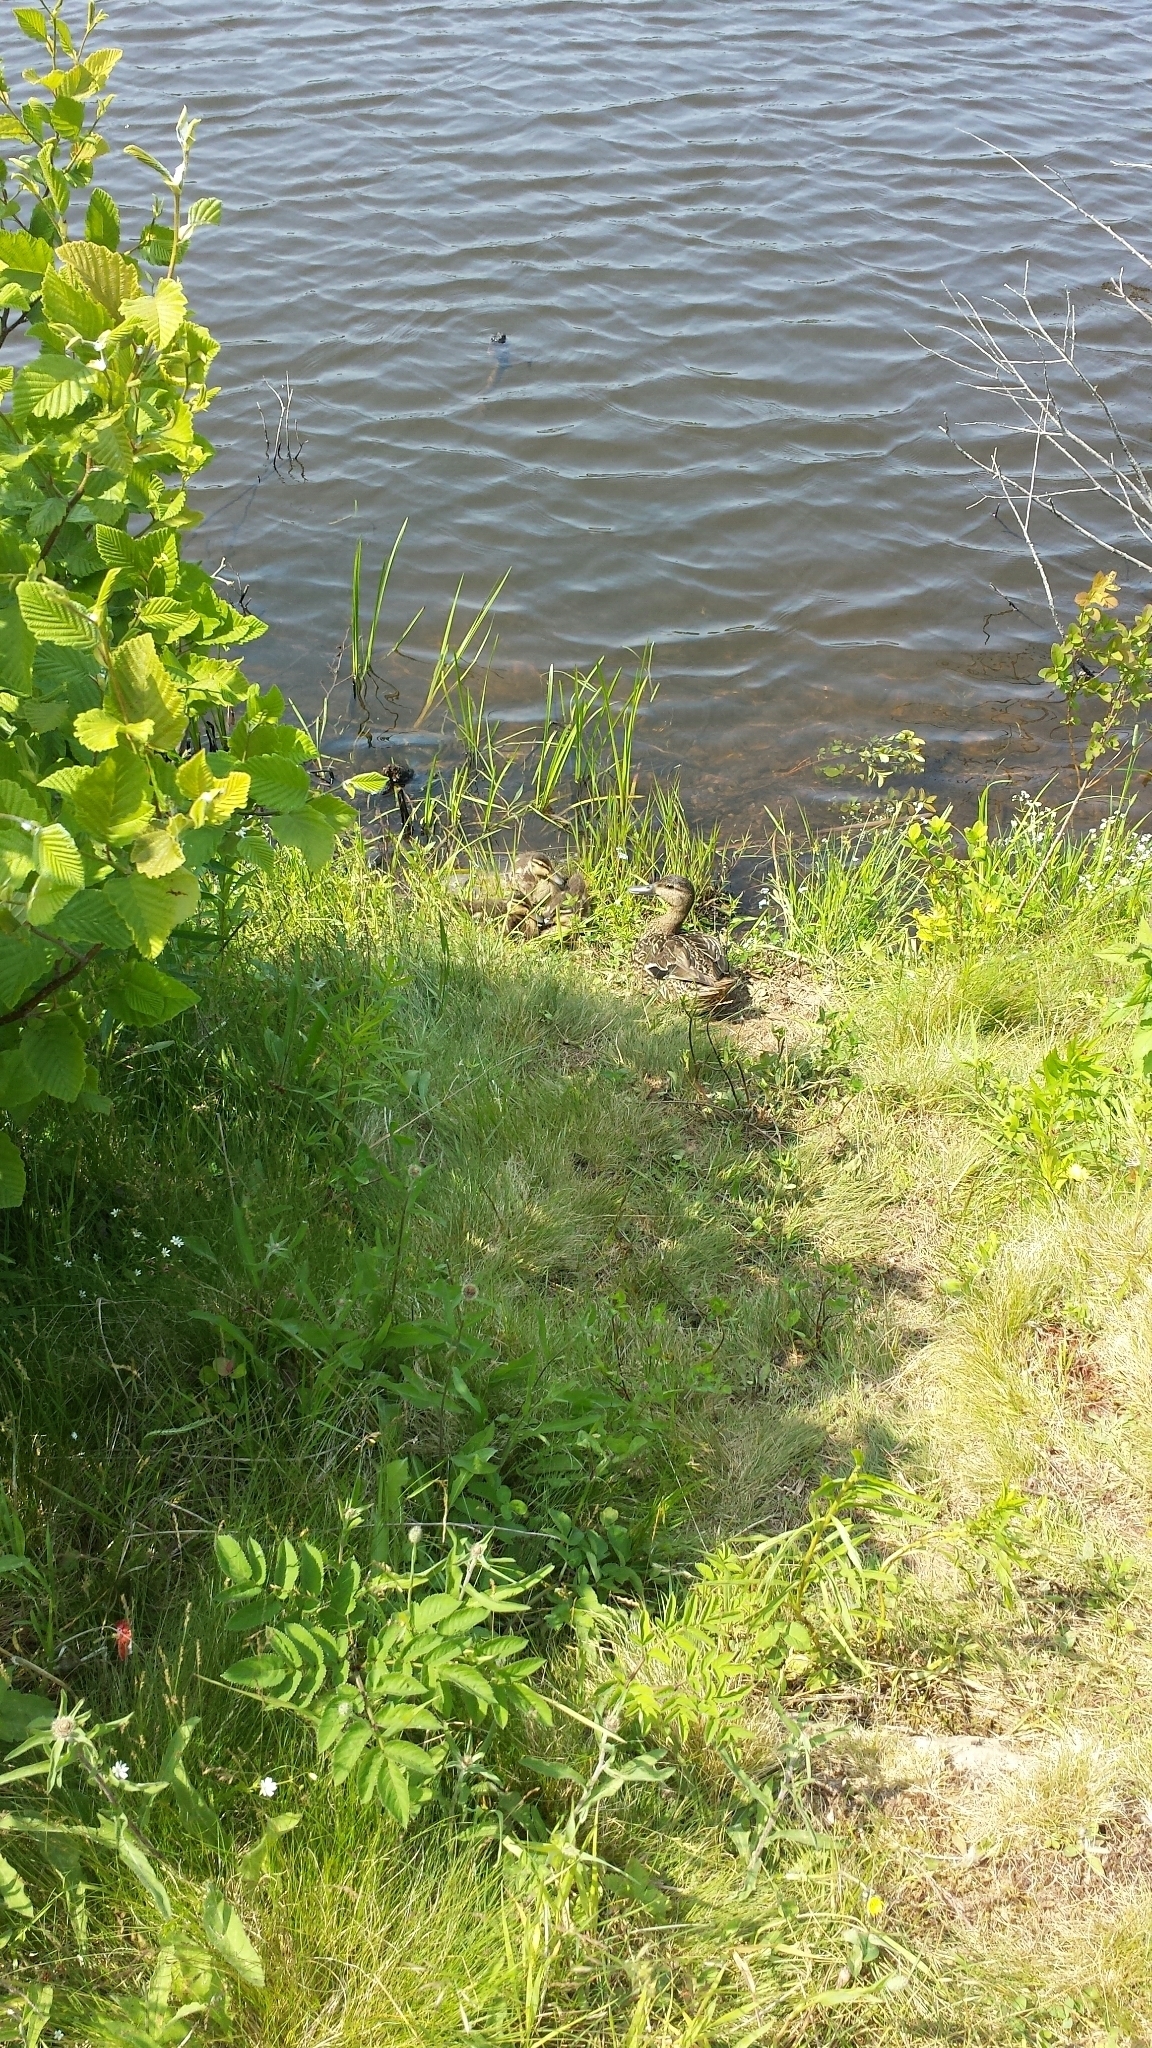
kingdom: Animalia
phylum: Chordata
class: Aves
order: Anseriformes
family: Anatidae
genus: Anas
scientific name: Anas rubripes
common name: American black duck
